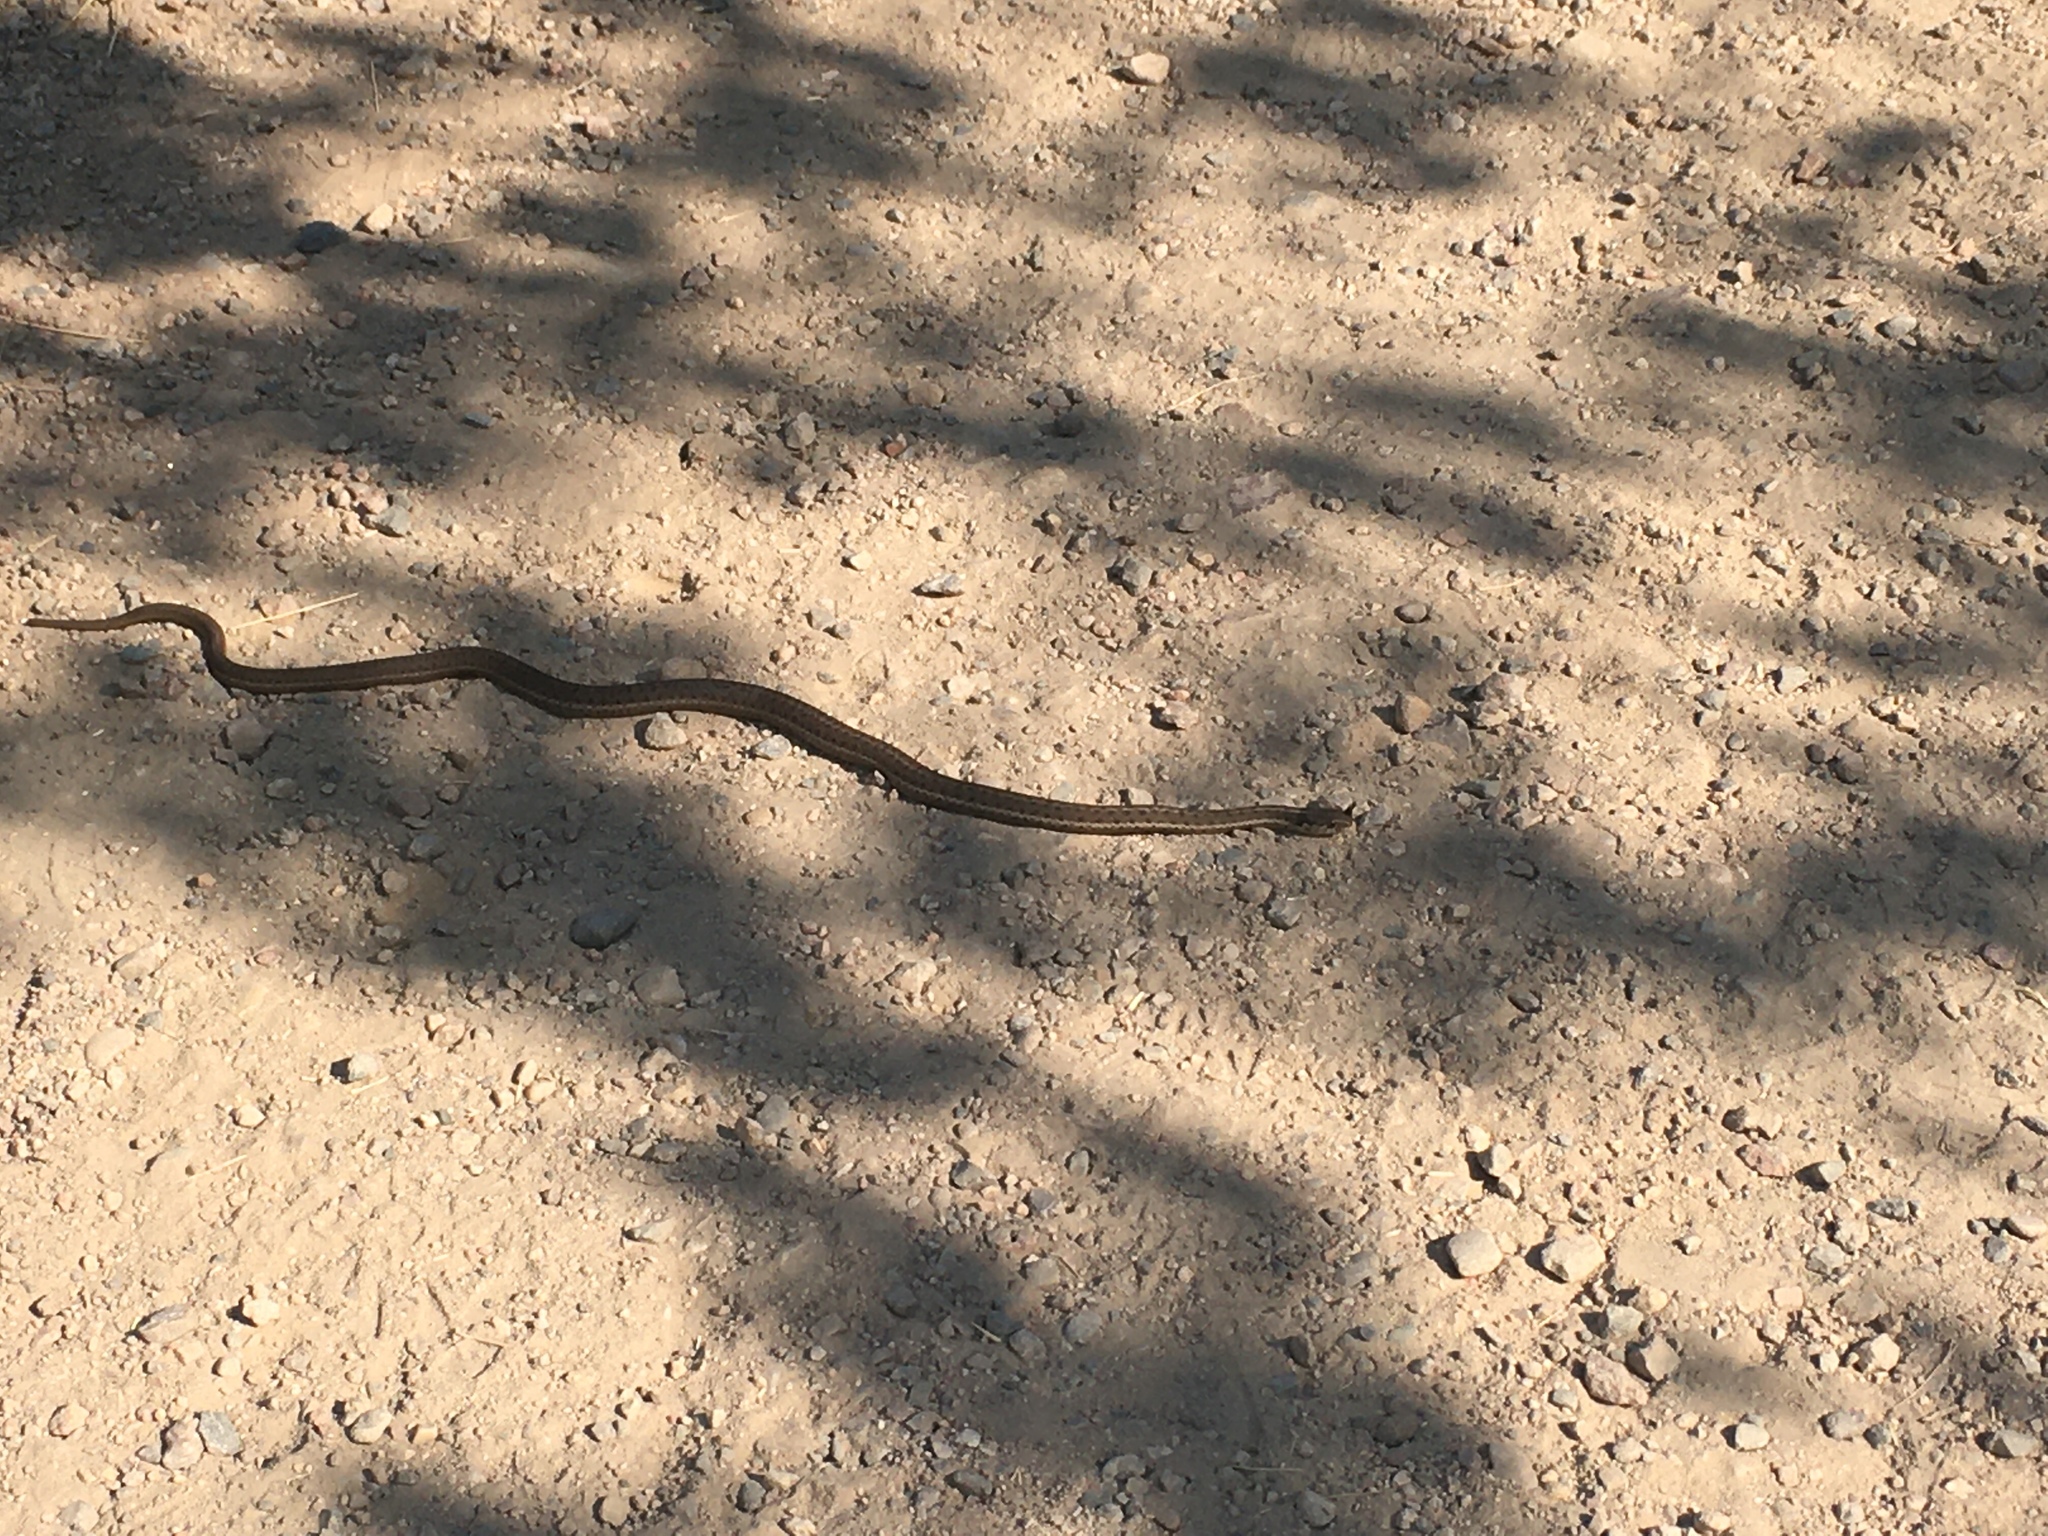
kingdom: Animalia
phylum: Chordata
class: Squamata
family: Colubridae
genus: Thamnophis
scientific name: Thamnophis elegans
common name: Western terrestrial garter snake
